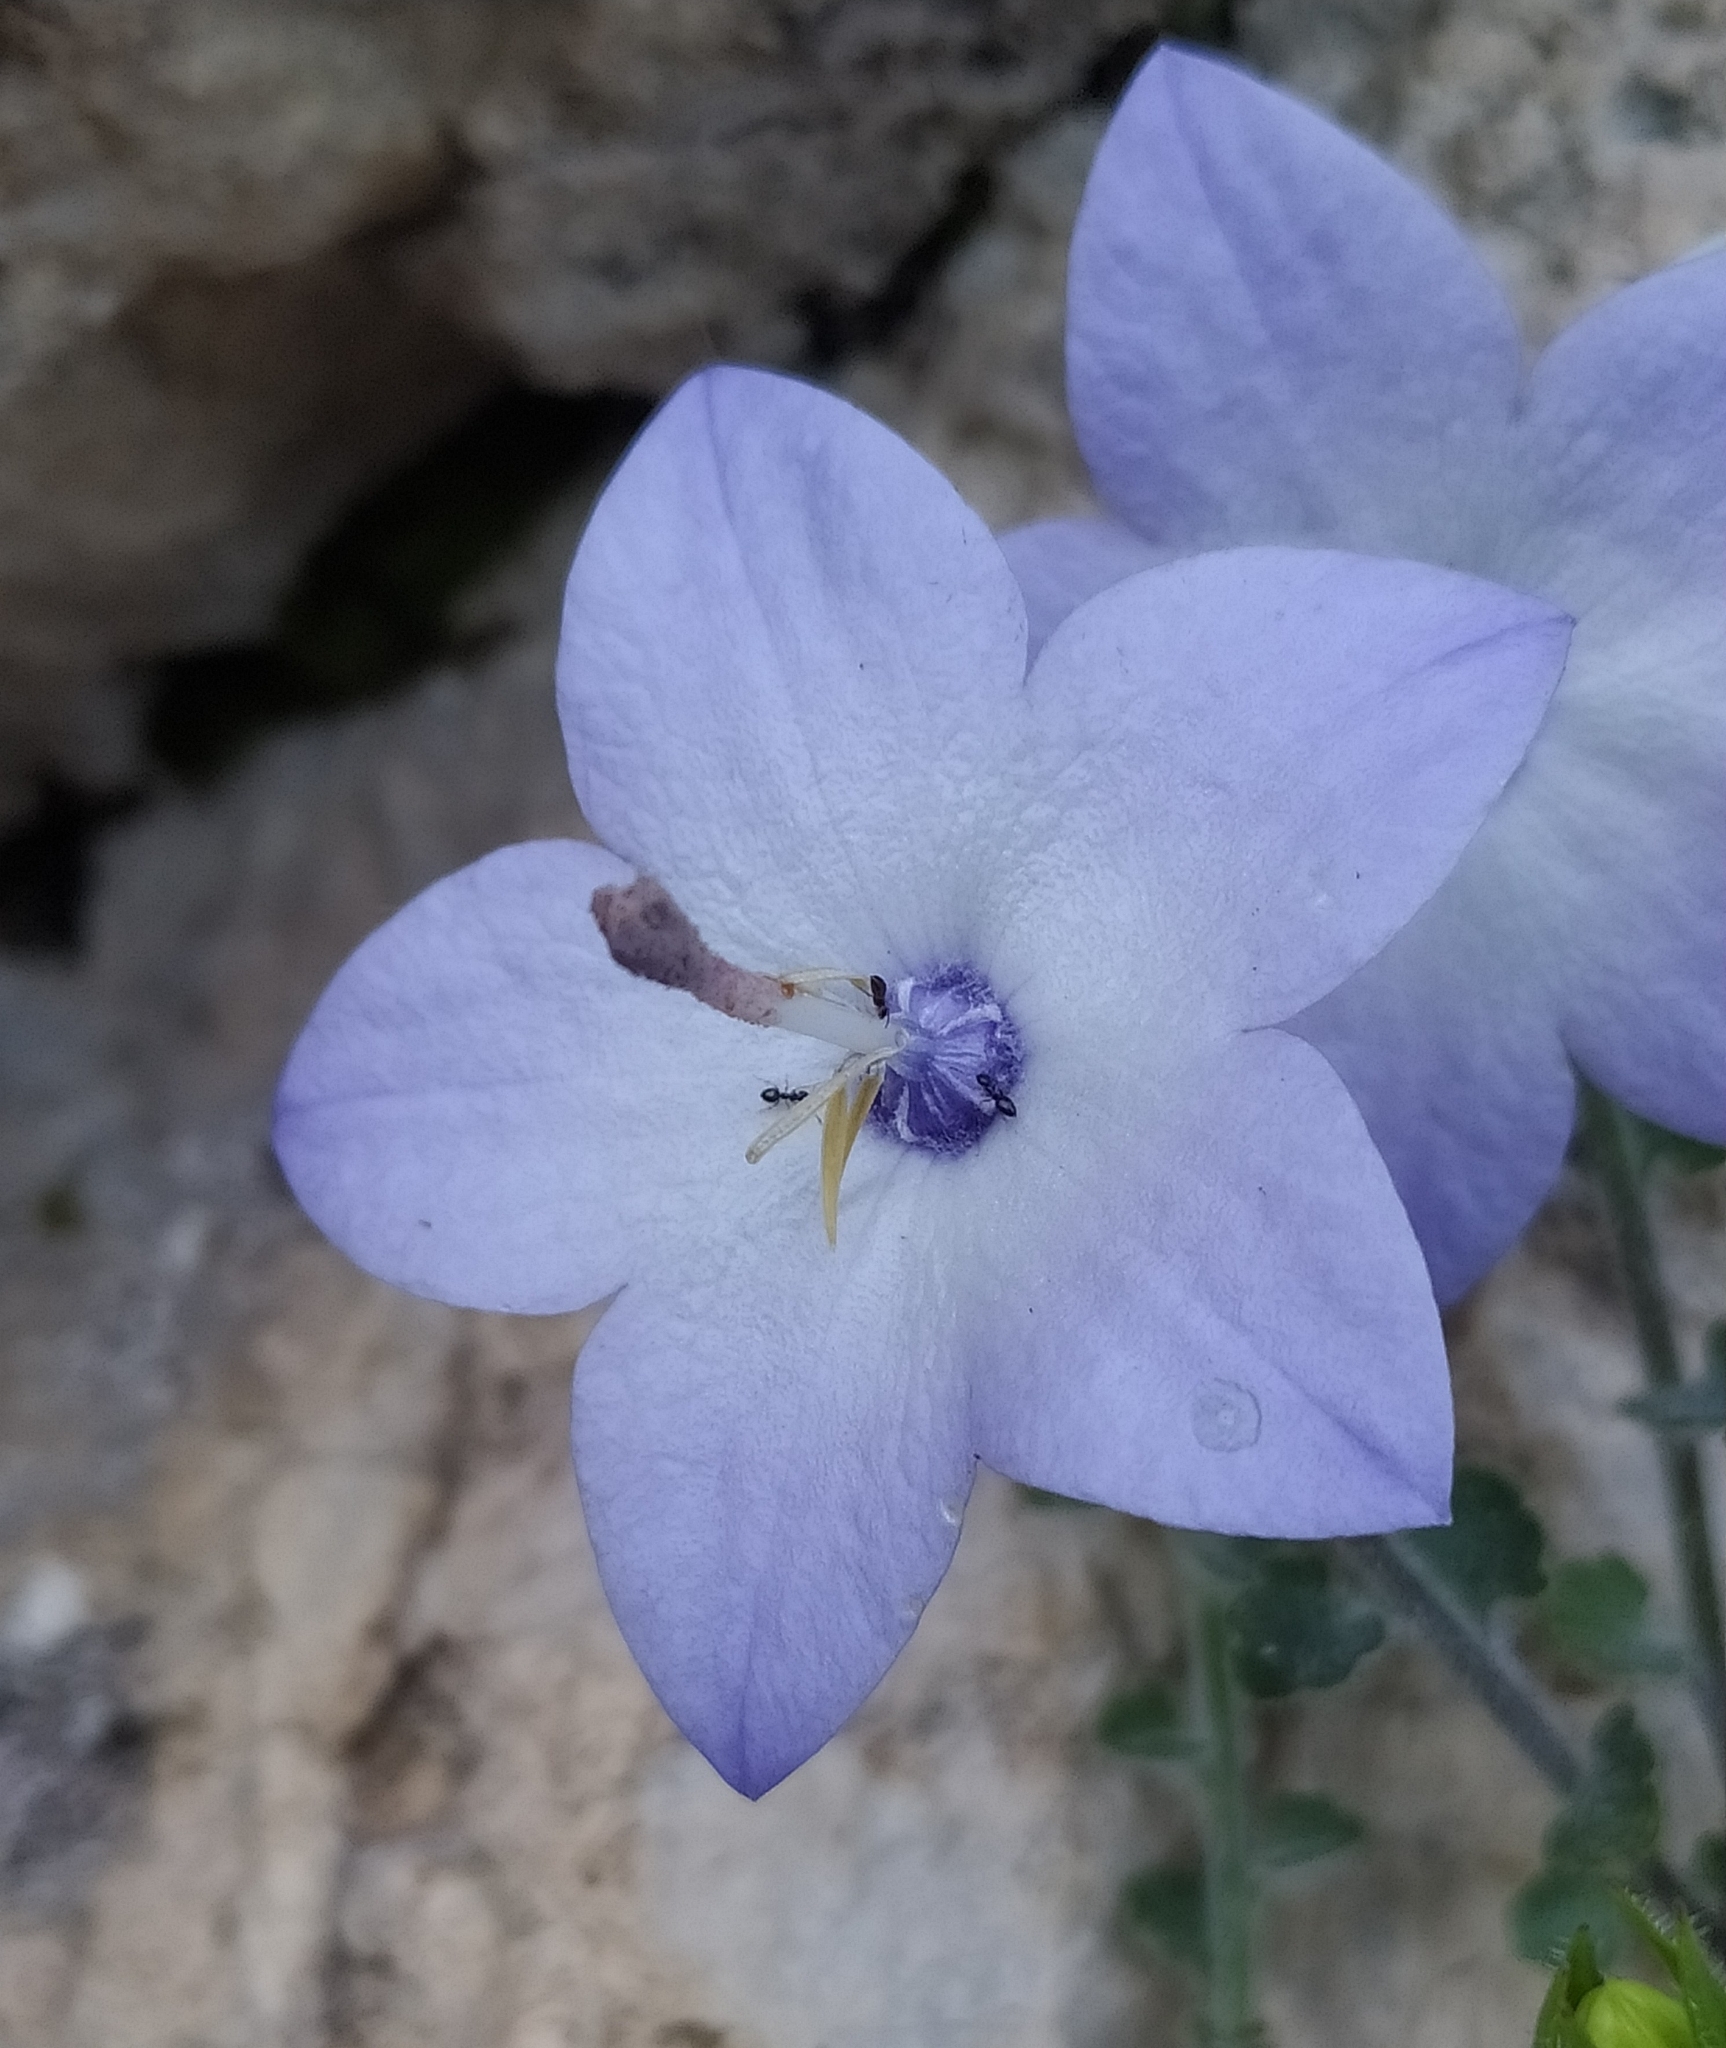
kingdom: Plantae
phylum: Tracheophyta
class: Magnoliopsida
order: Asterales
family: Campanulaceae
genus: Campanula
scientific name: Campanula fragilis
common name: Italian bellflower
